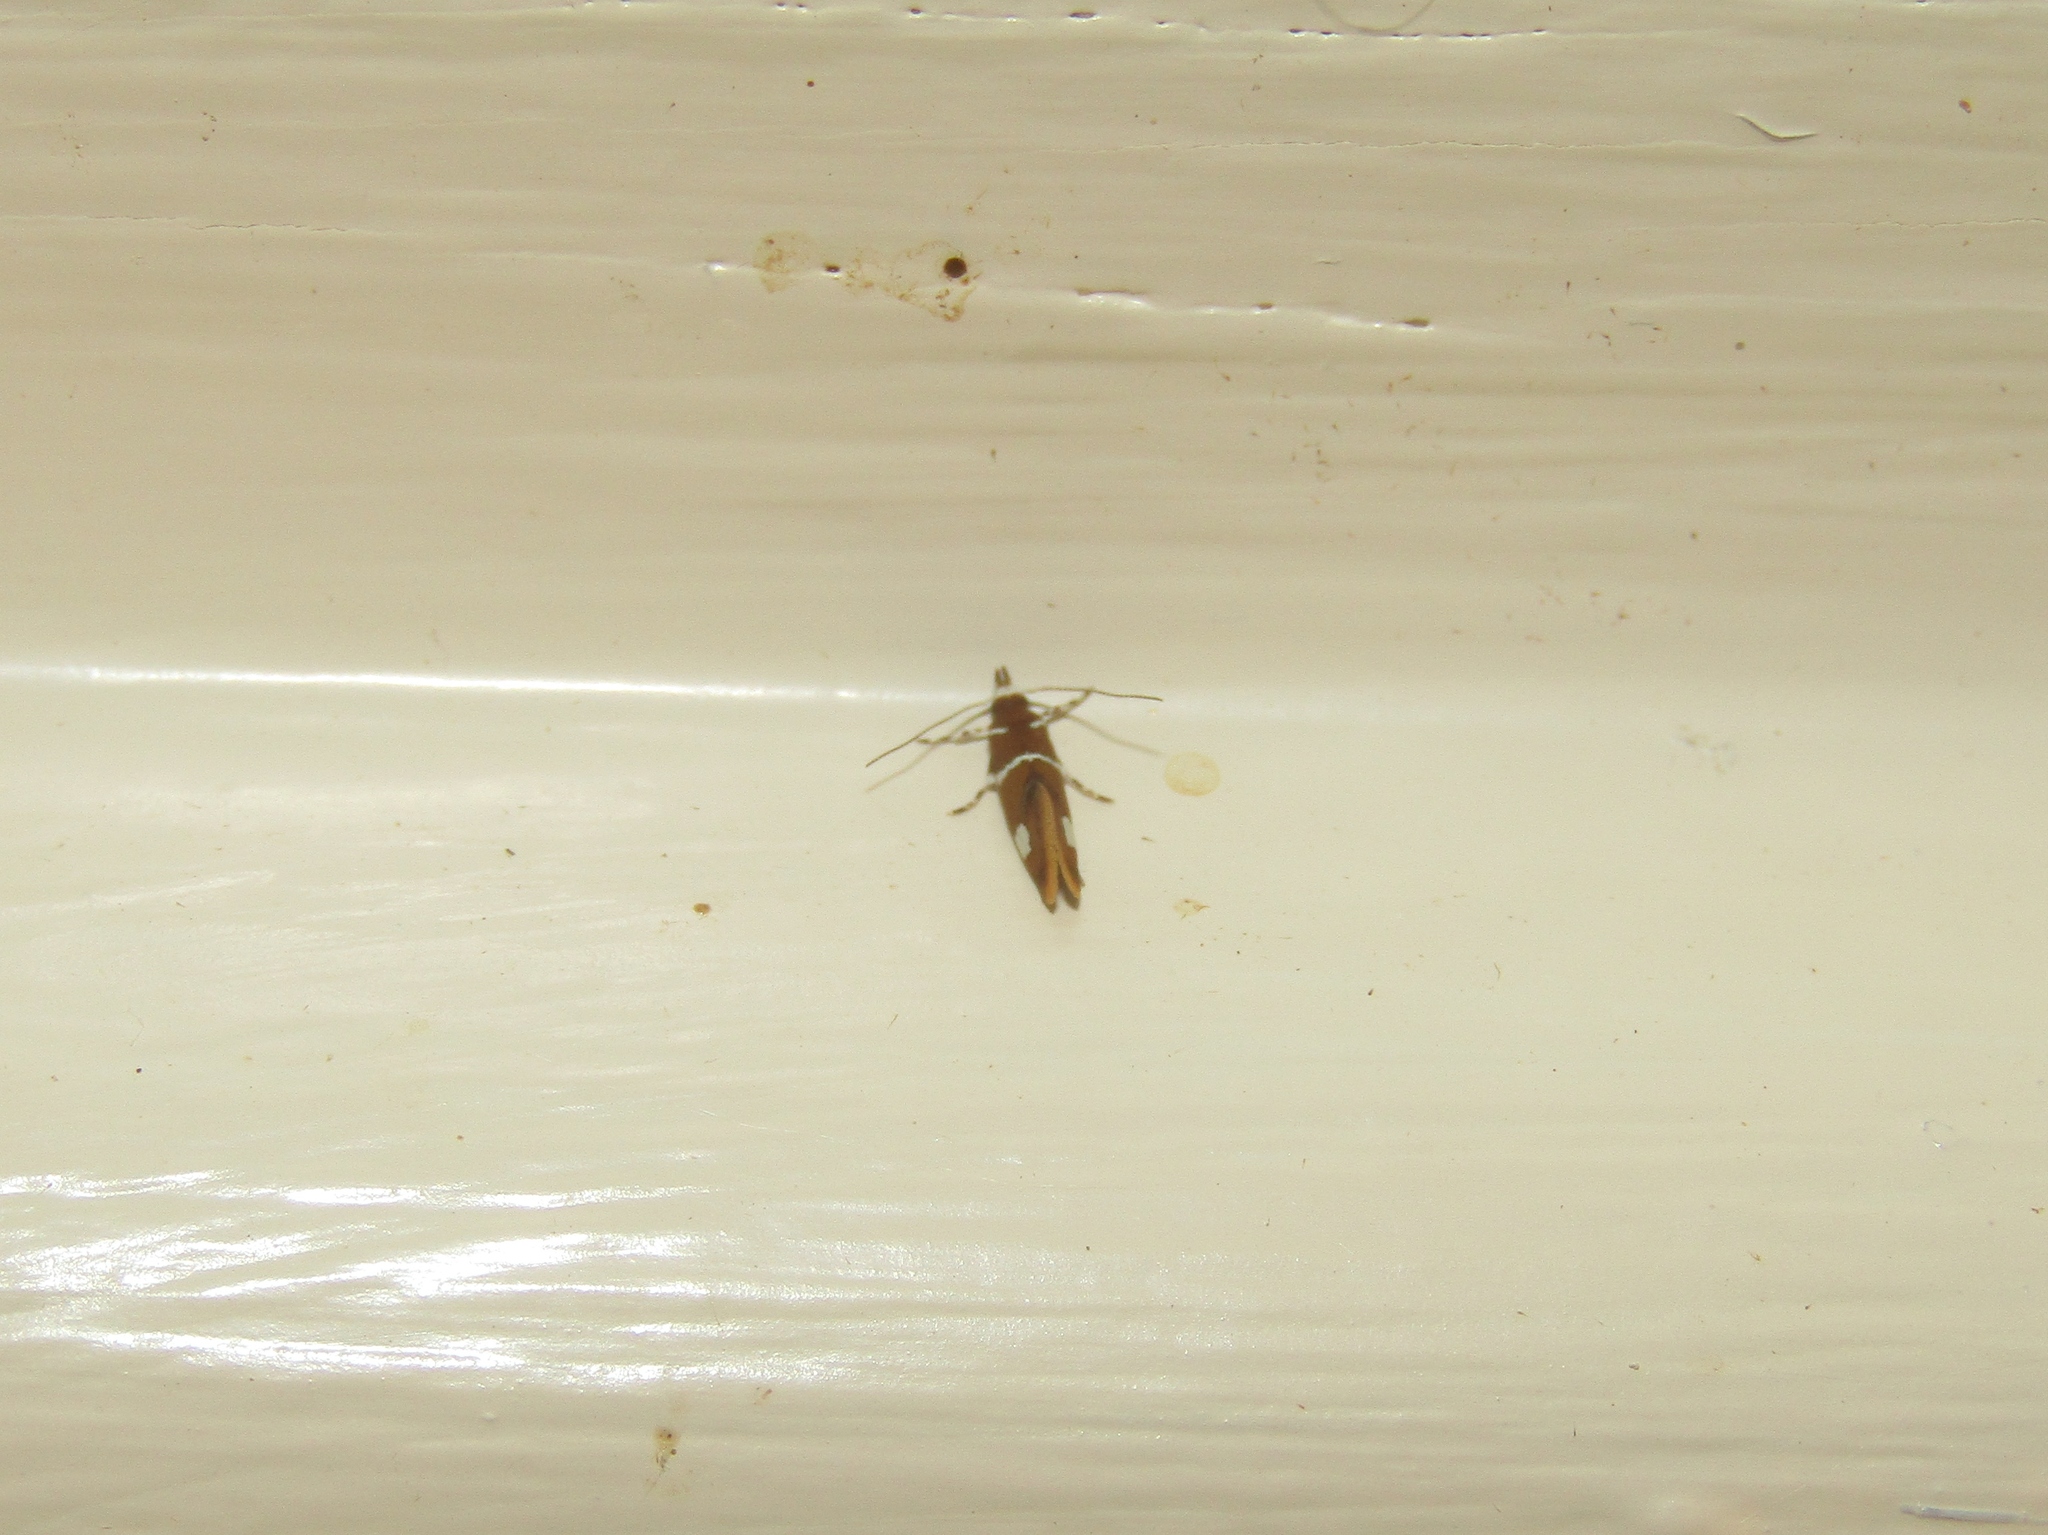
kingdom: Animalia
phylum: Arthropoda
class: Insecta
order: Lepidoptera
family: Oecophoridae
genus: Promalactis
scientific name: Promalactis suzukiella
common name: Moth
